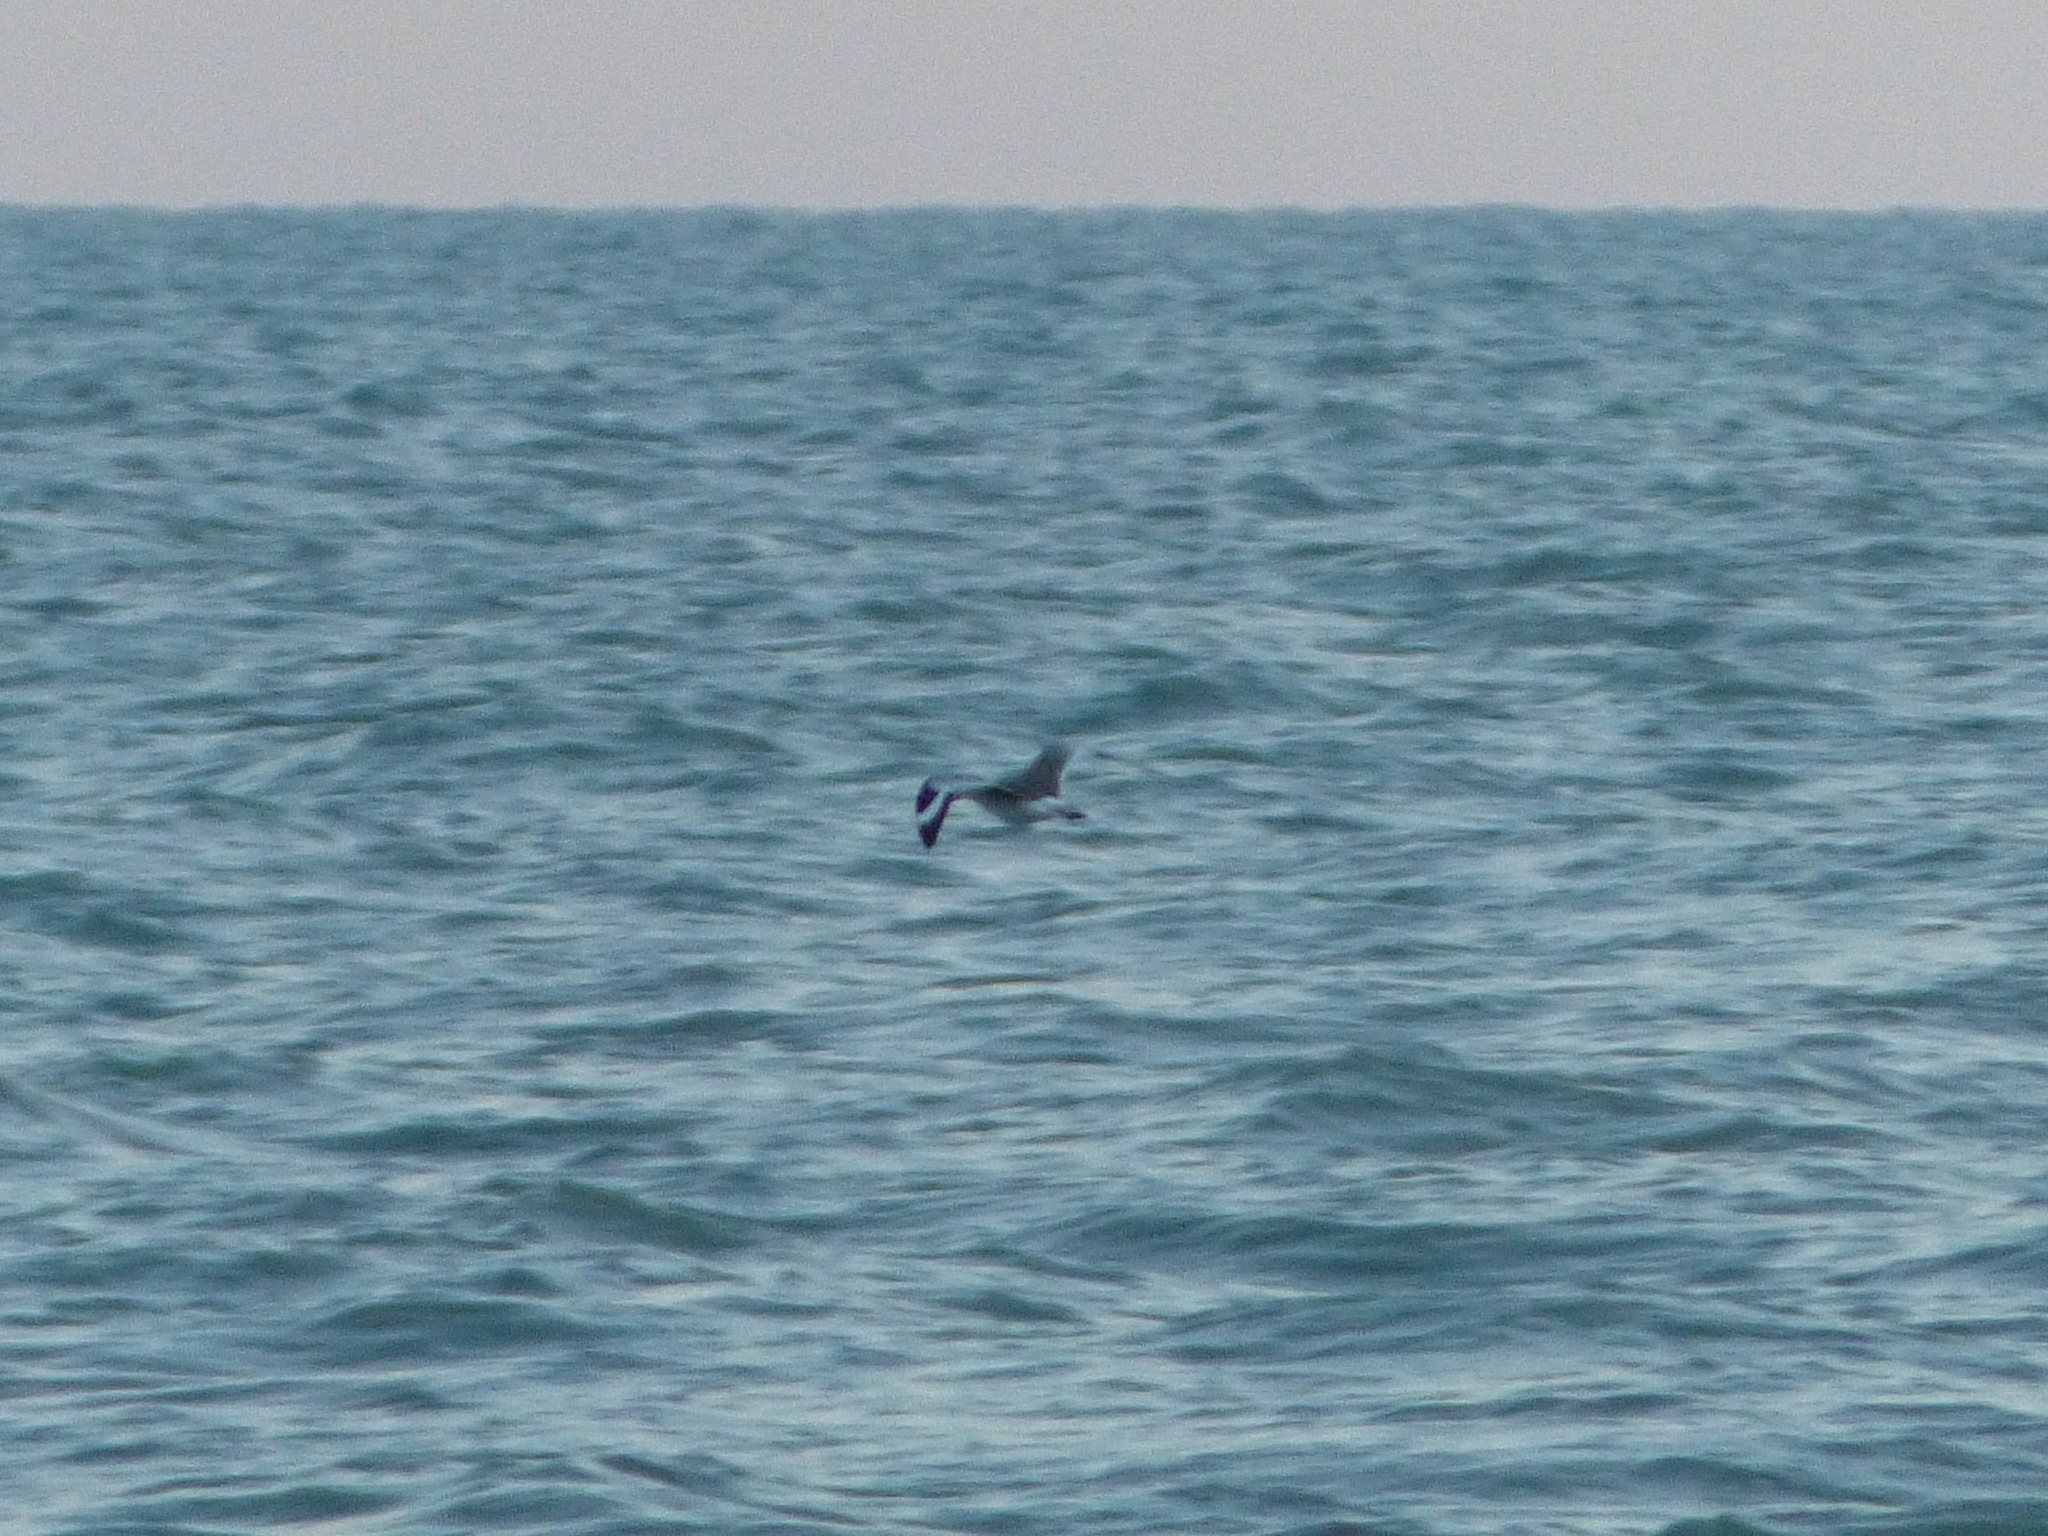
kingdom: Animalia
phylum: Chordata
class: Aves
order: Charadriiformes
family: Scolopacidae
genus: Tringa
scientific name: Tringa semipalmata
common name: Willet
